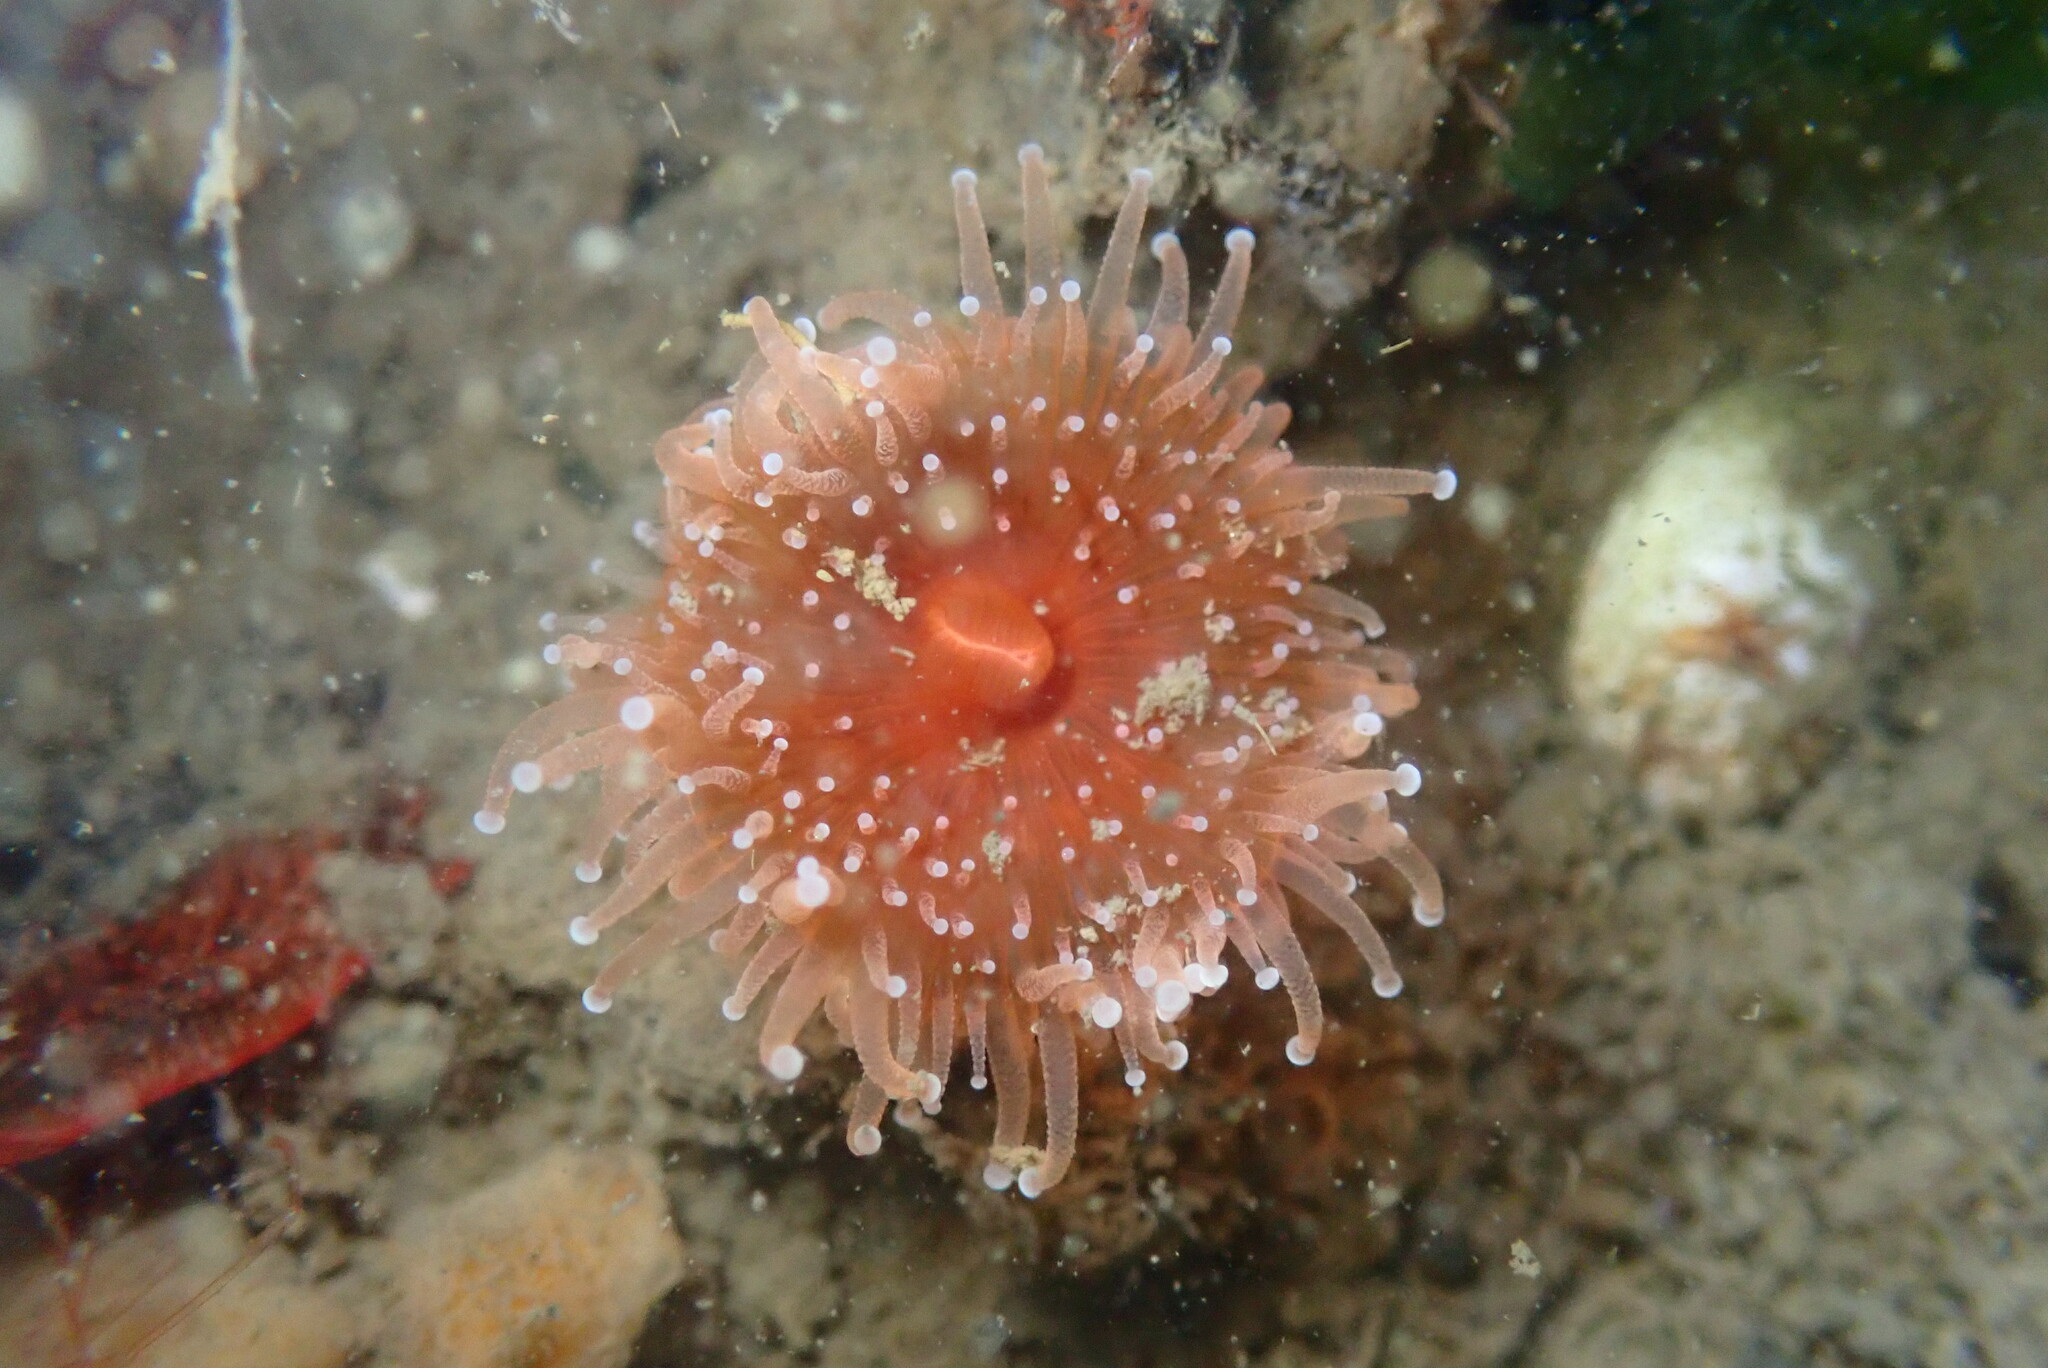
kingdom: Animalia
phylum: Cnidaria
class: Anthozoa
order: Corallimorpharia
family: Corallimorphidae
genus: Corynactis
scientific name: Corynactis californica
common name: Strawberry corallimorpharian
